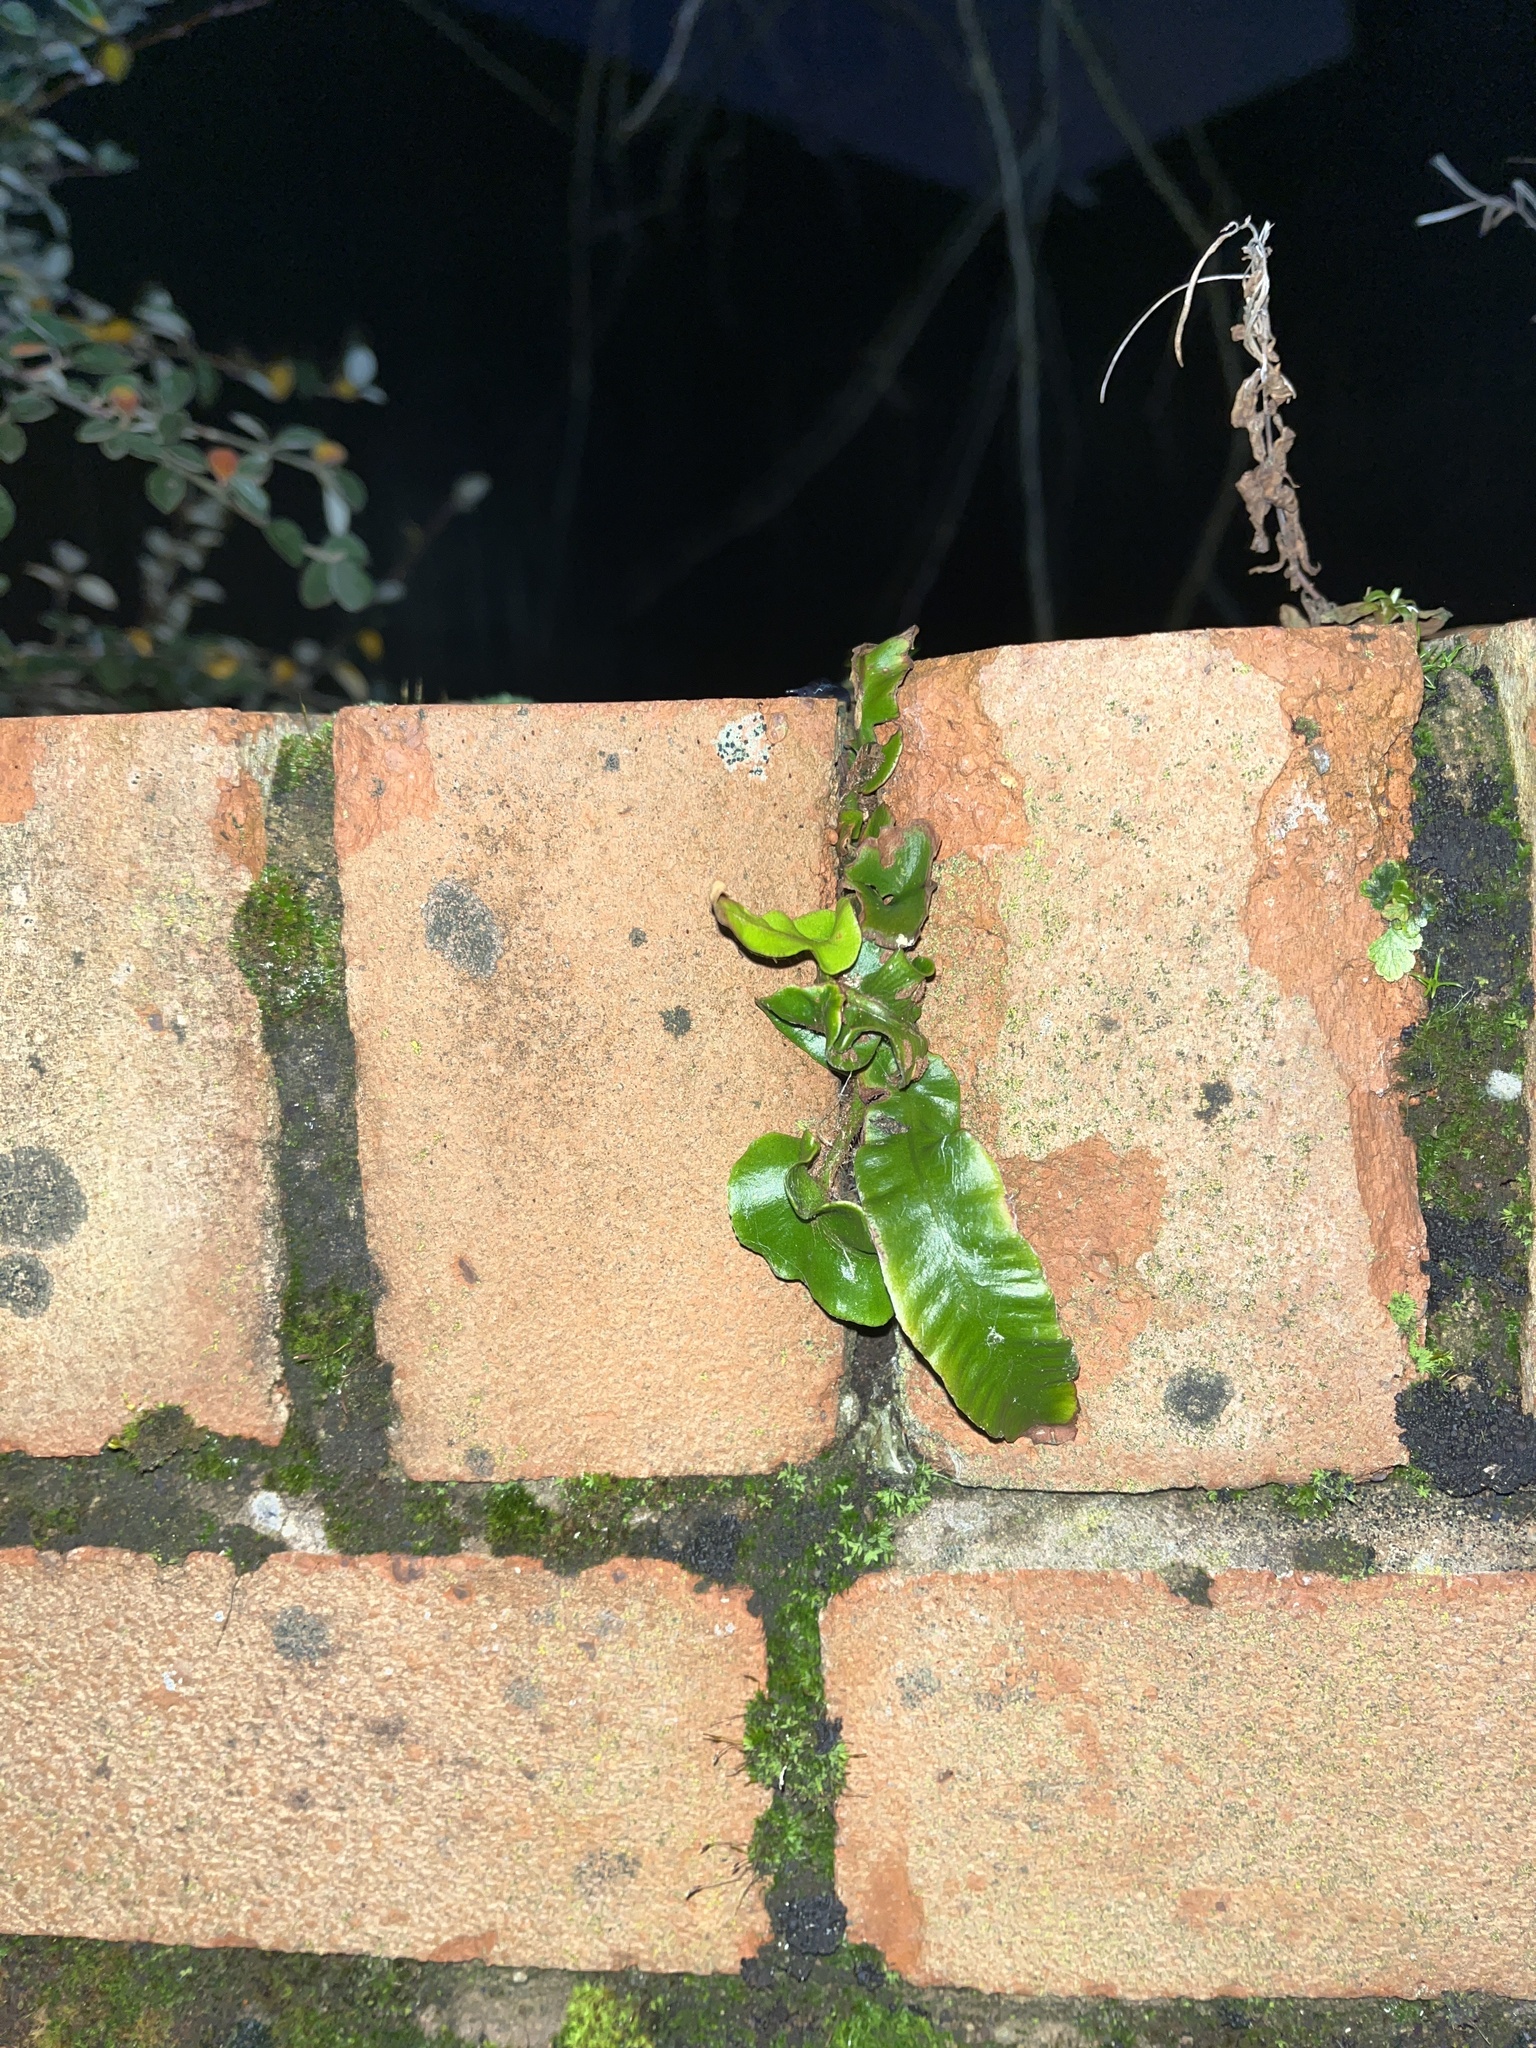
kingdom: Plantae
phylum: Tracheophyta
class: Polypodiopsida
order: Polypodiales
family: Aspleniaceae
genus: Asplenium
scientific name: Asplenium scolopendrium
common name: Hart's-tongue fern
